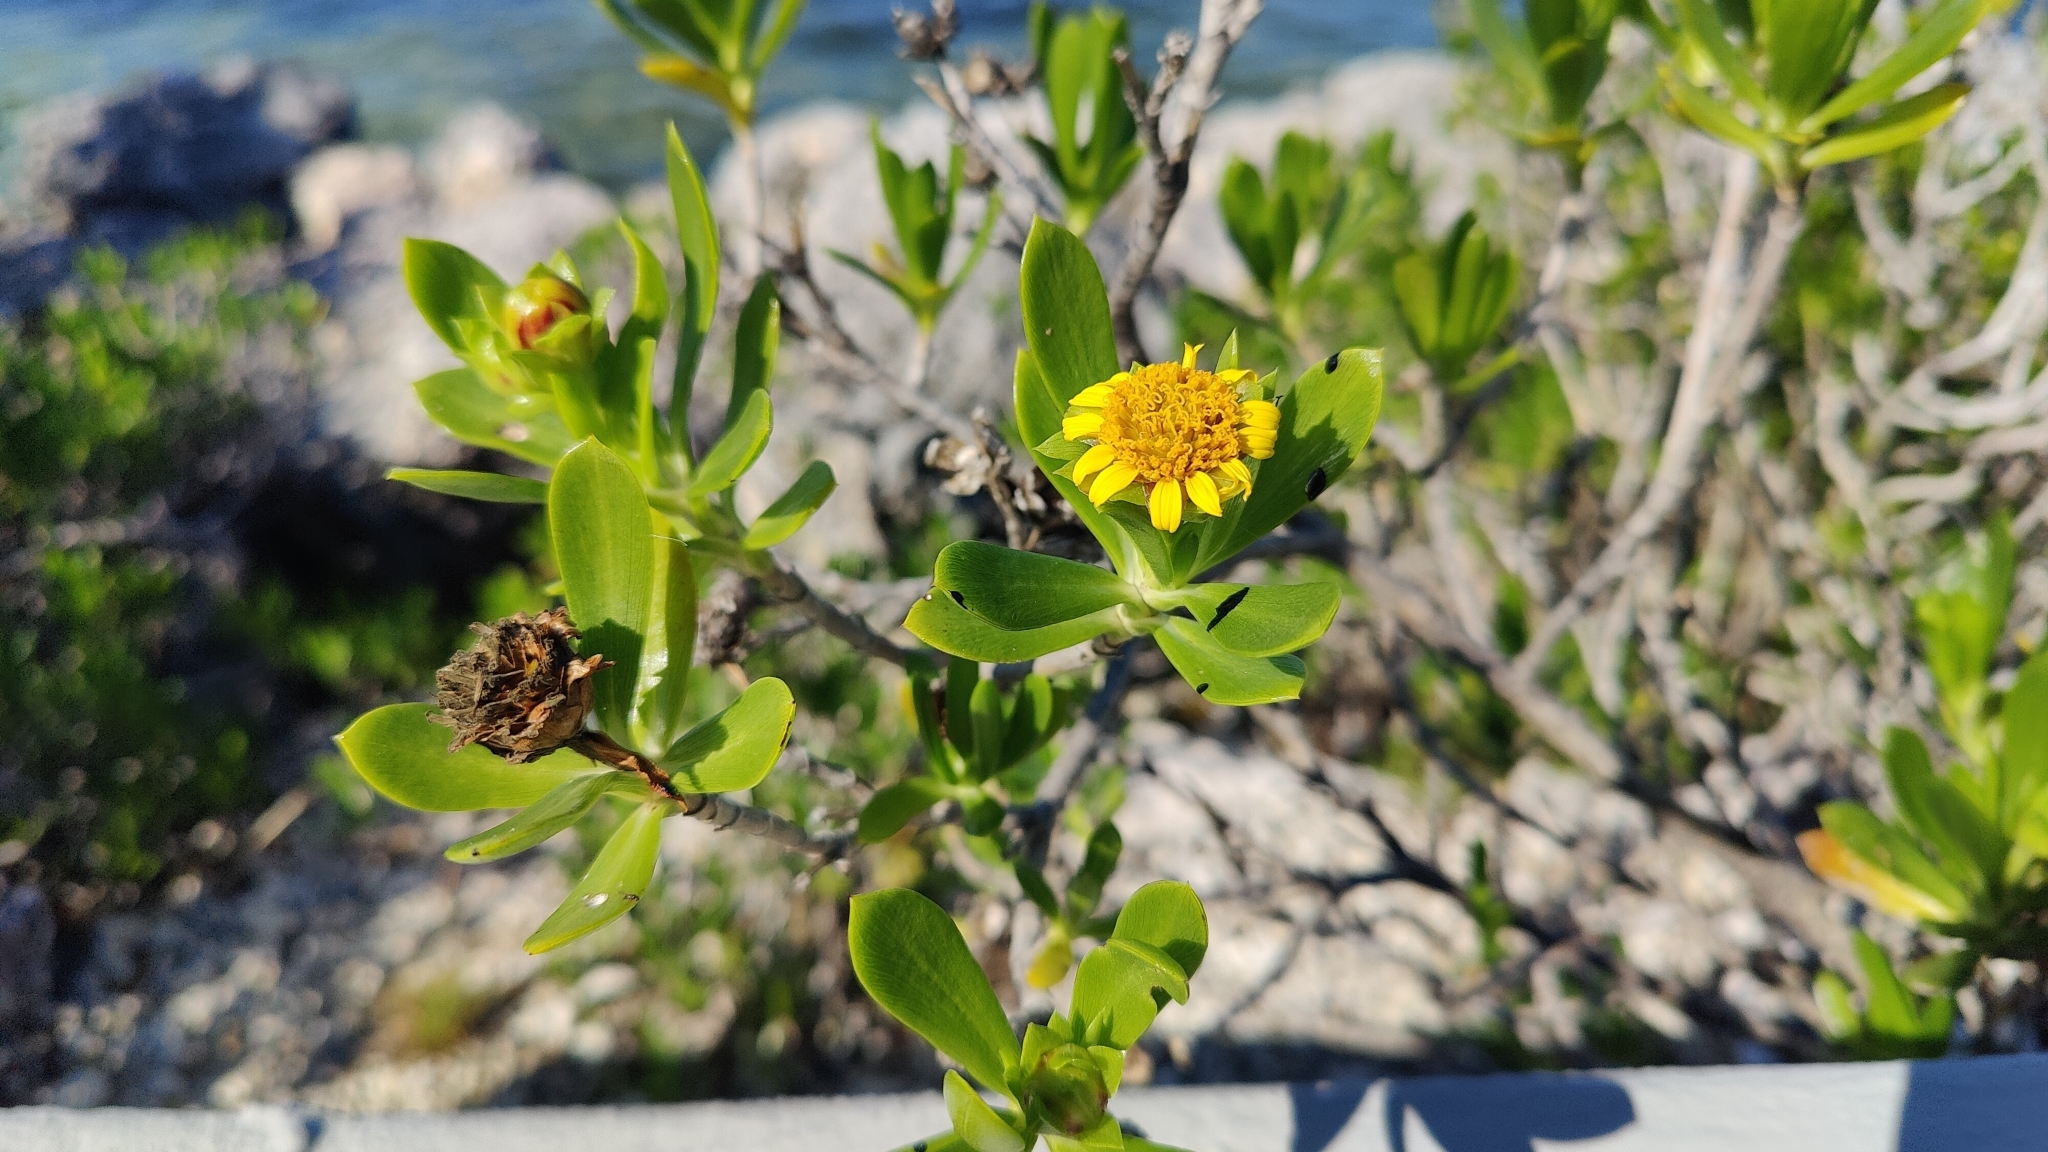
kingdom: Plantae
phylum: Tracheophyta
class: Magnoliopsida
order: Asterales
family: Asteraceae
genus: Borrichia
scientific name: Borrichia arborescens
